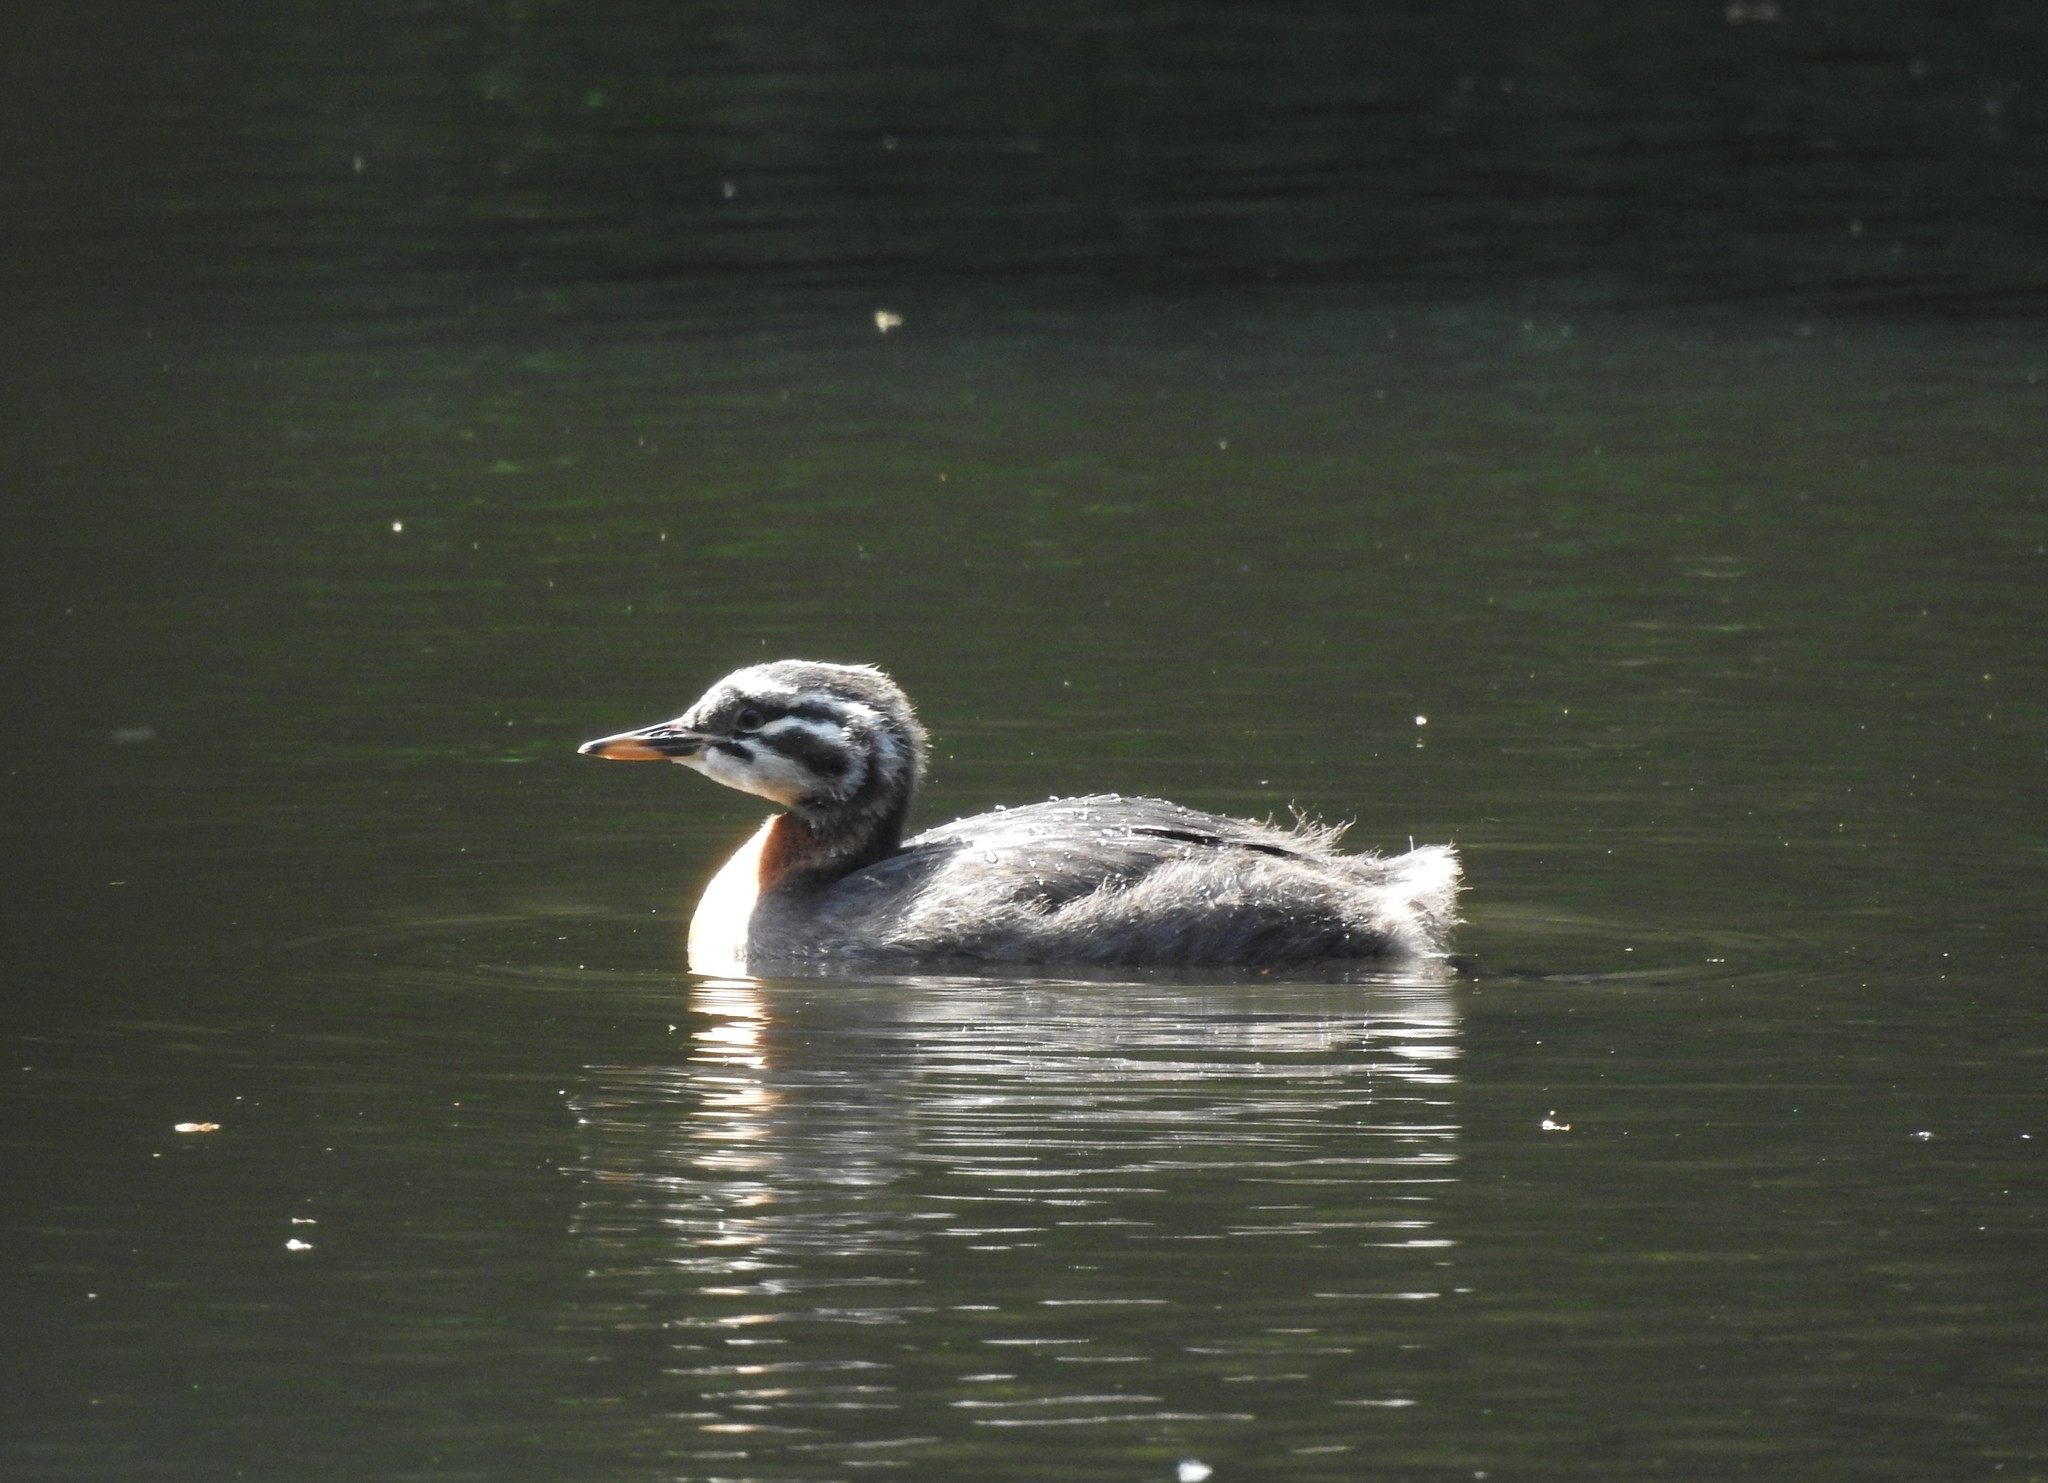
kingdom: Animalia
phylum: Chordata
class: Aves
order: Podicipediformes
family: Podicipedidae
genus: Podiceps
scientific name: Podiceps grisegena
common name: Red-necked grebe
